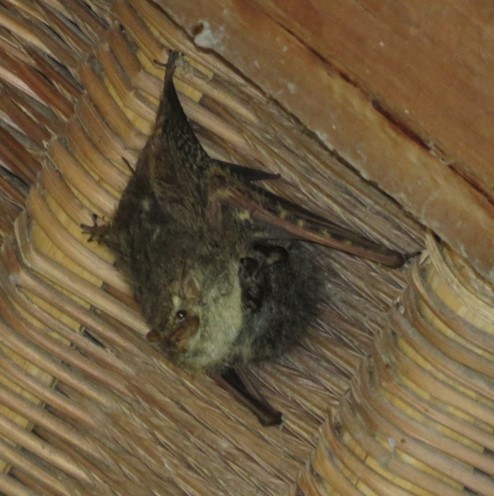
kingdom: Animalia
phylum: Chordata
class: Mammalia
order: Chiroptera
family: Emballonuridae
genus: Rhynchonycteris
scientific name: Rhynchonycteris naso
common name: Proboscis bat
